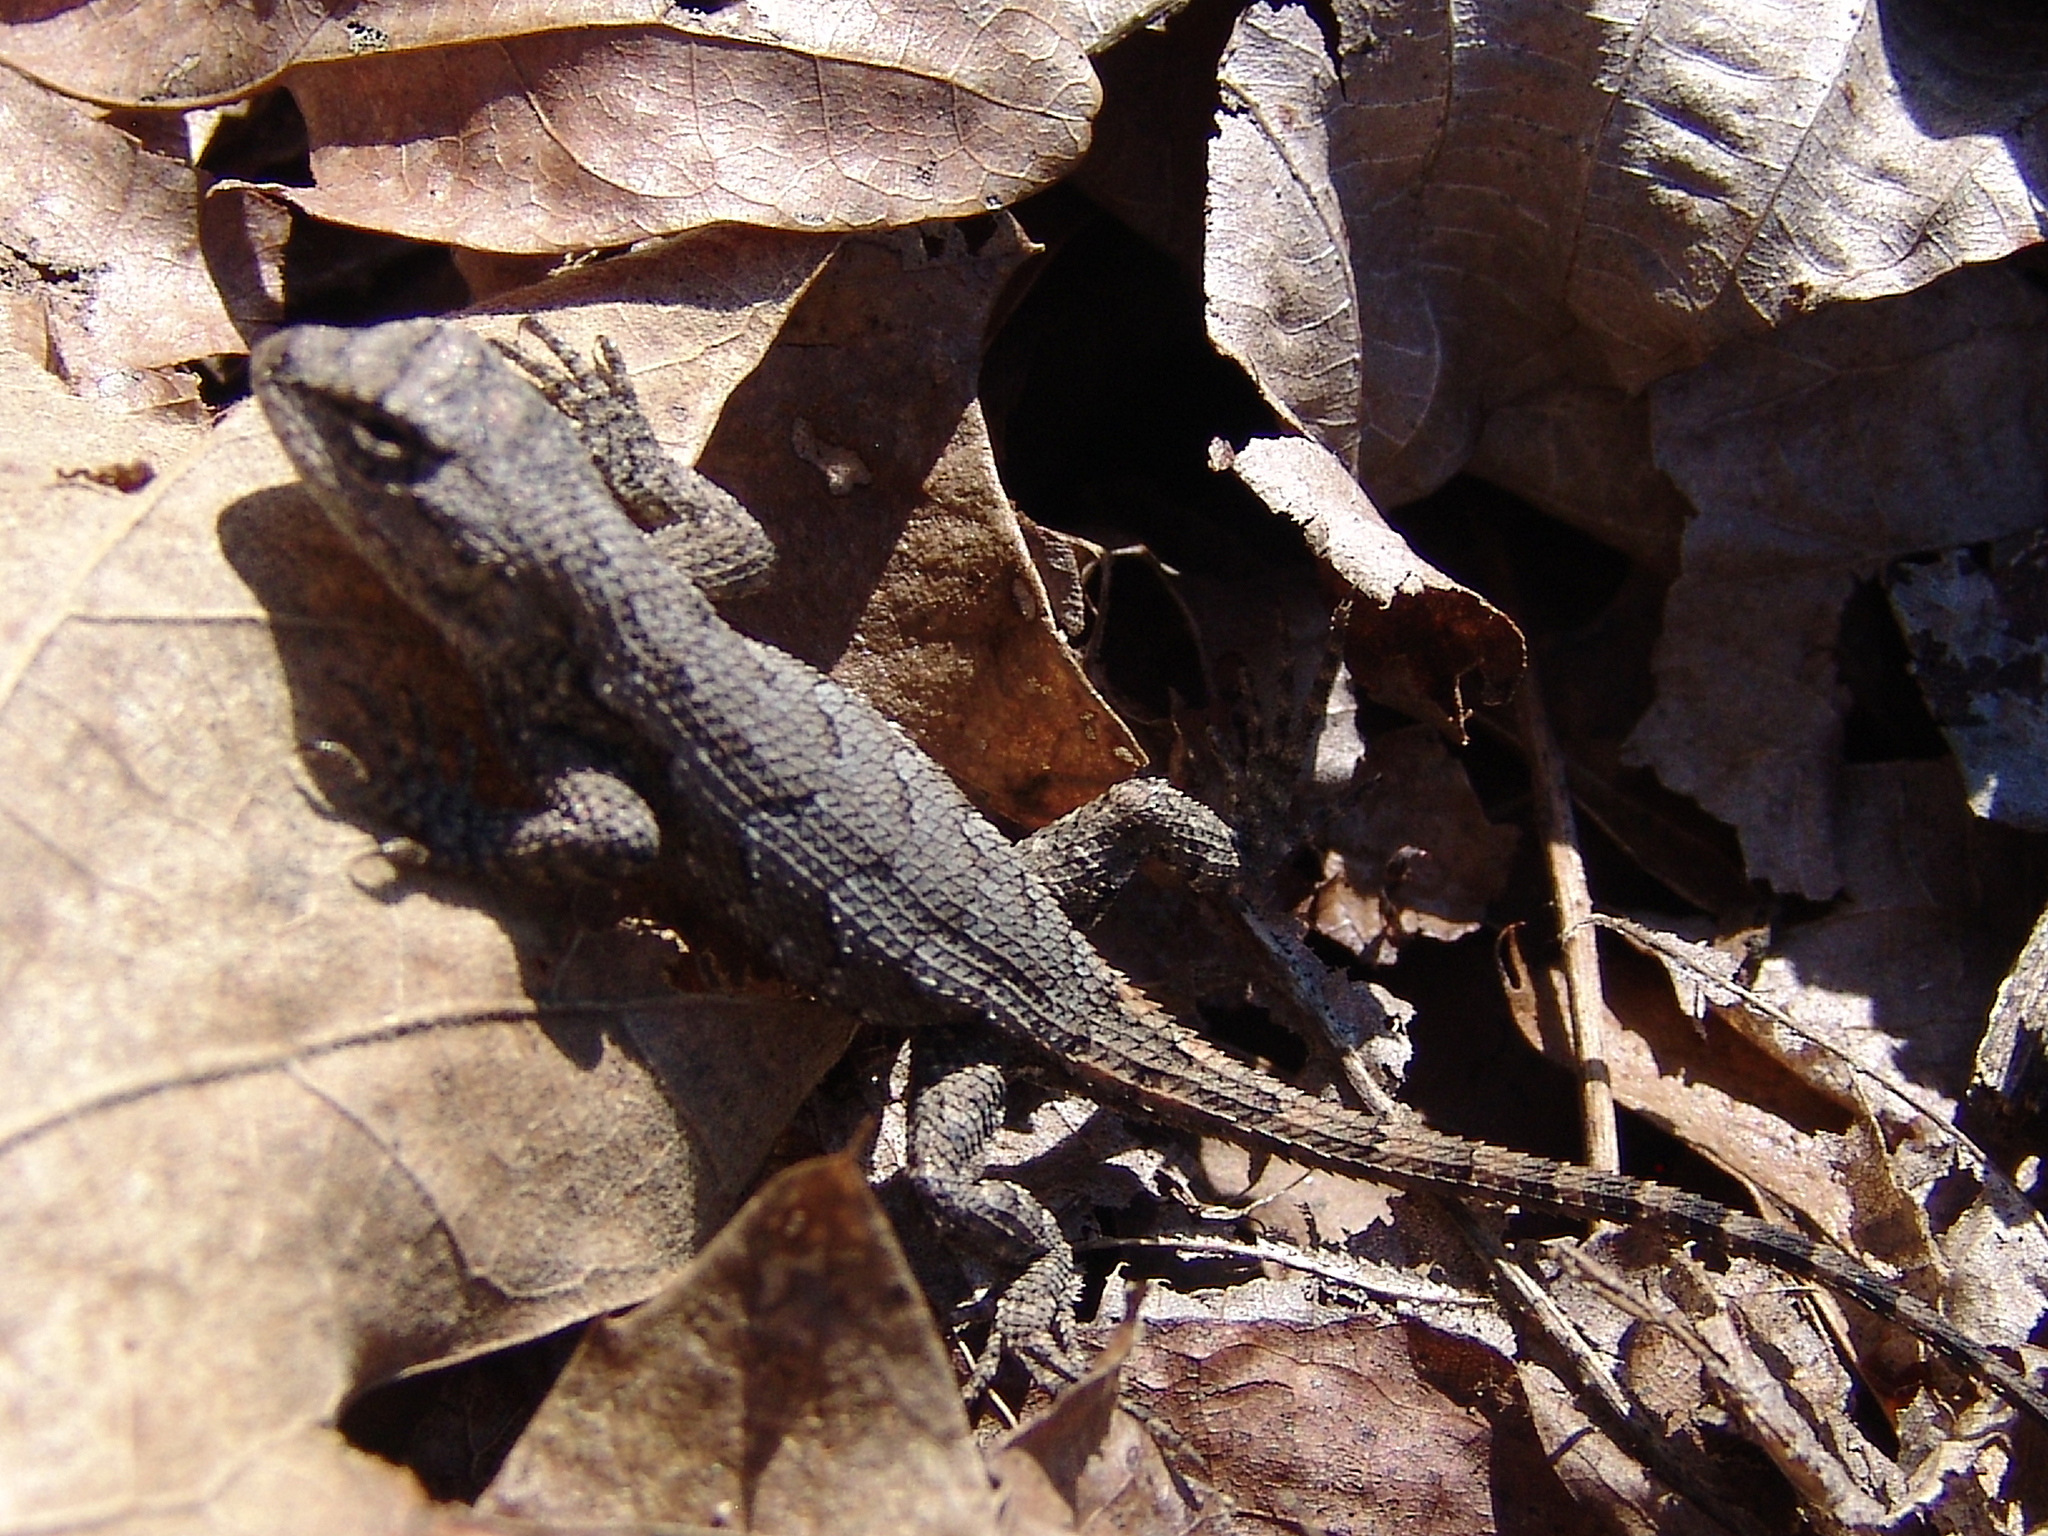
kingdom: Animalia
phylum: Chordata
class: Squamata
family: Phrynosomatidae
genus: Sceloporus
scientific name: Sceloporus consobrinus
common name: Southern prairie lizard
